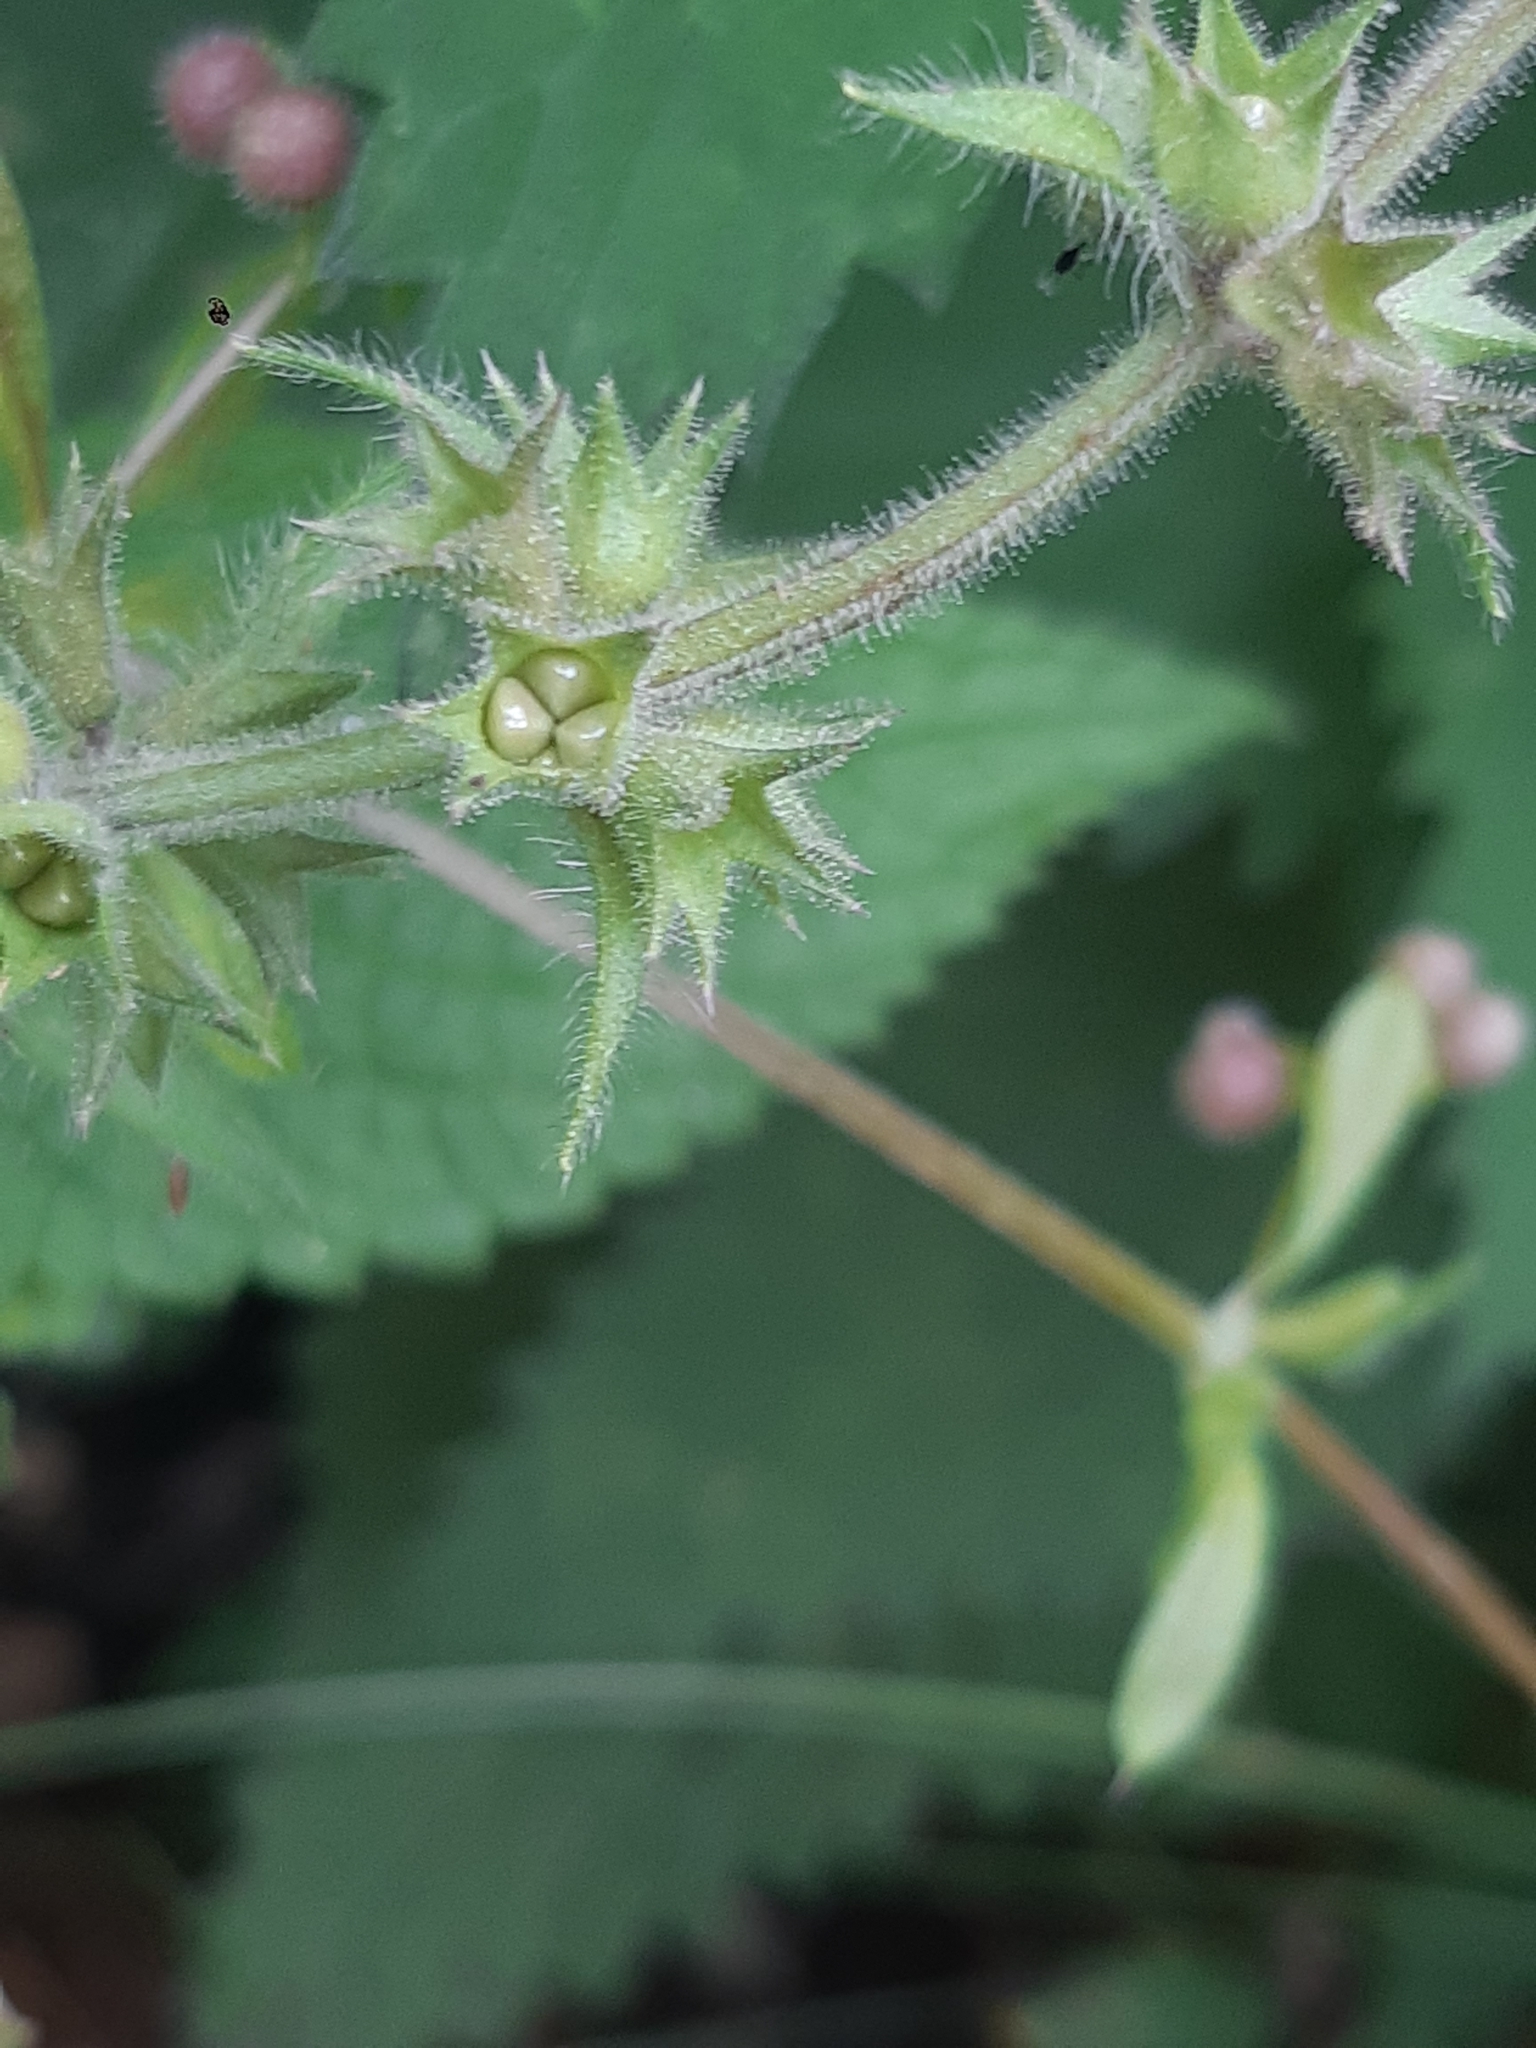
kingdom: Plantae
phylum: Tracheophyta
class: Magnoliopsida
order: Lamiales
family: Lamiaceae
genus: Stachys
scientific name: Stachys sylvatica
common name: Hedge woundwort
